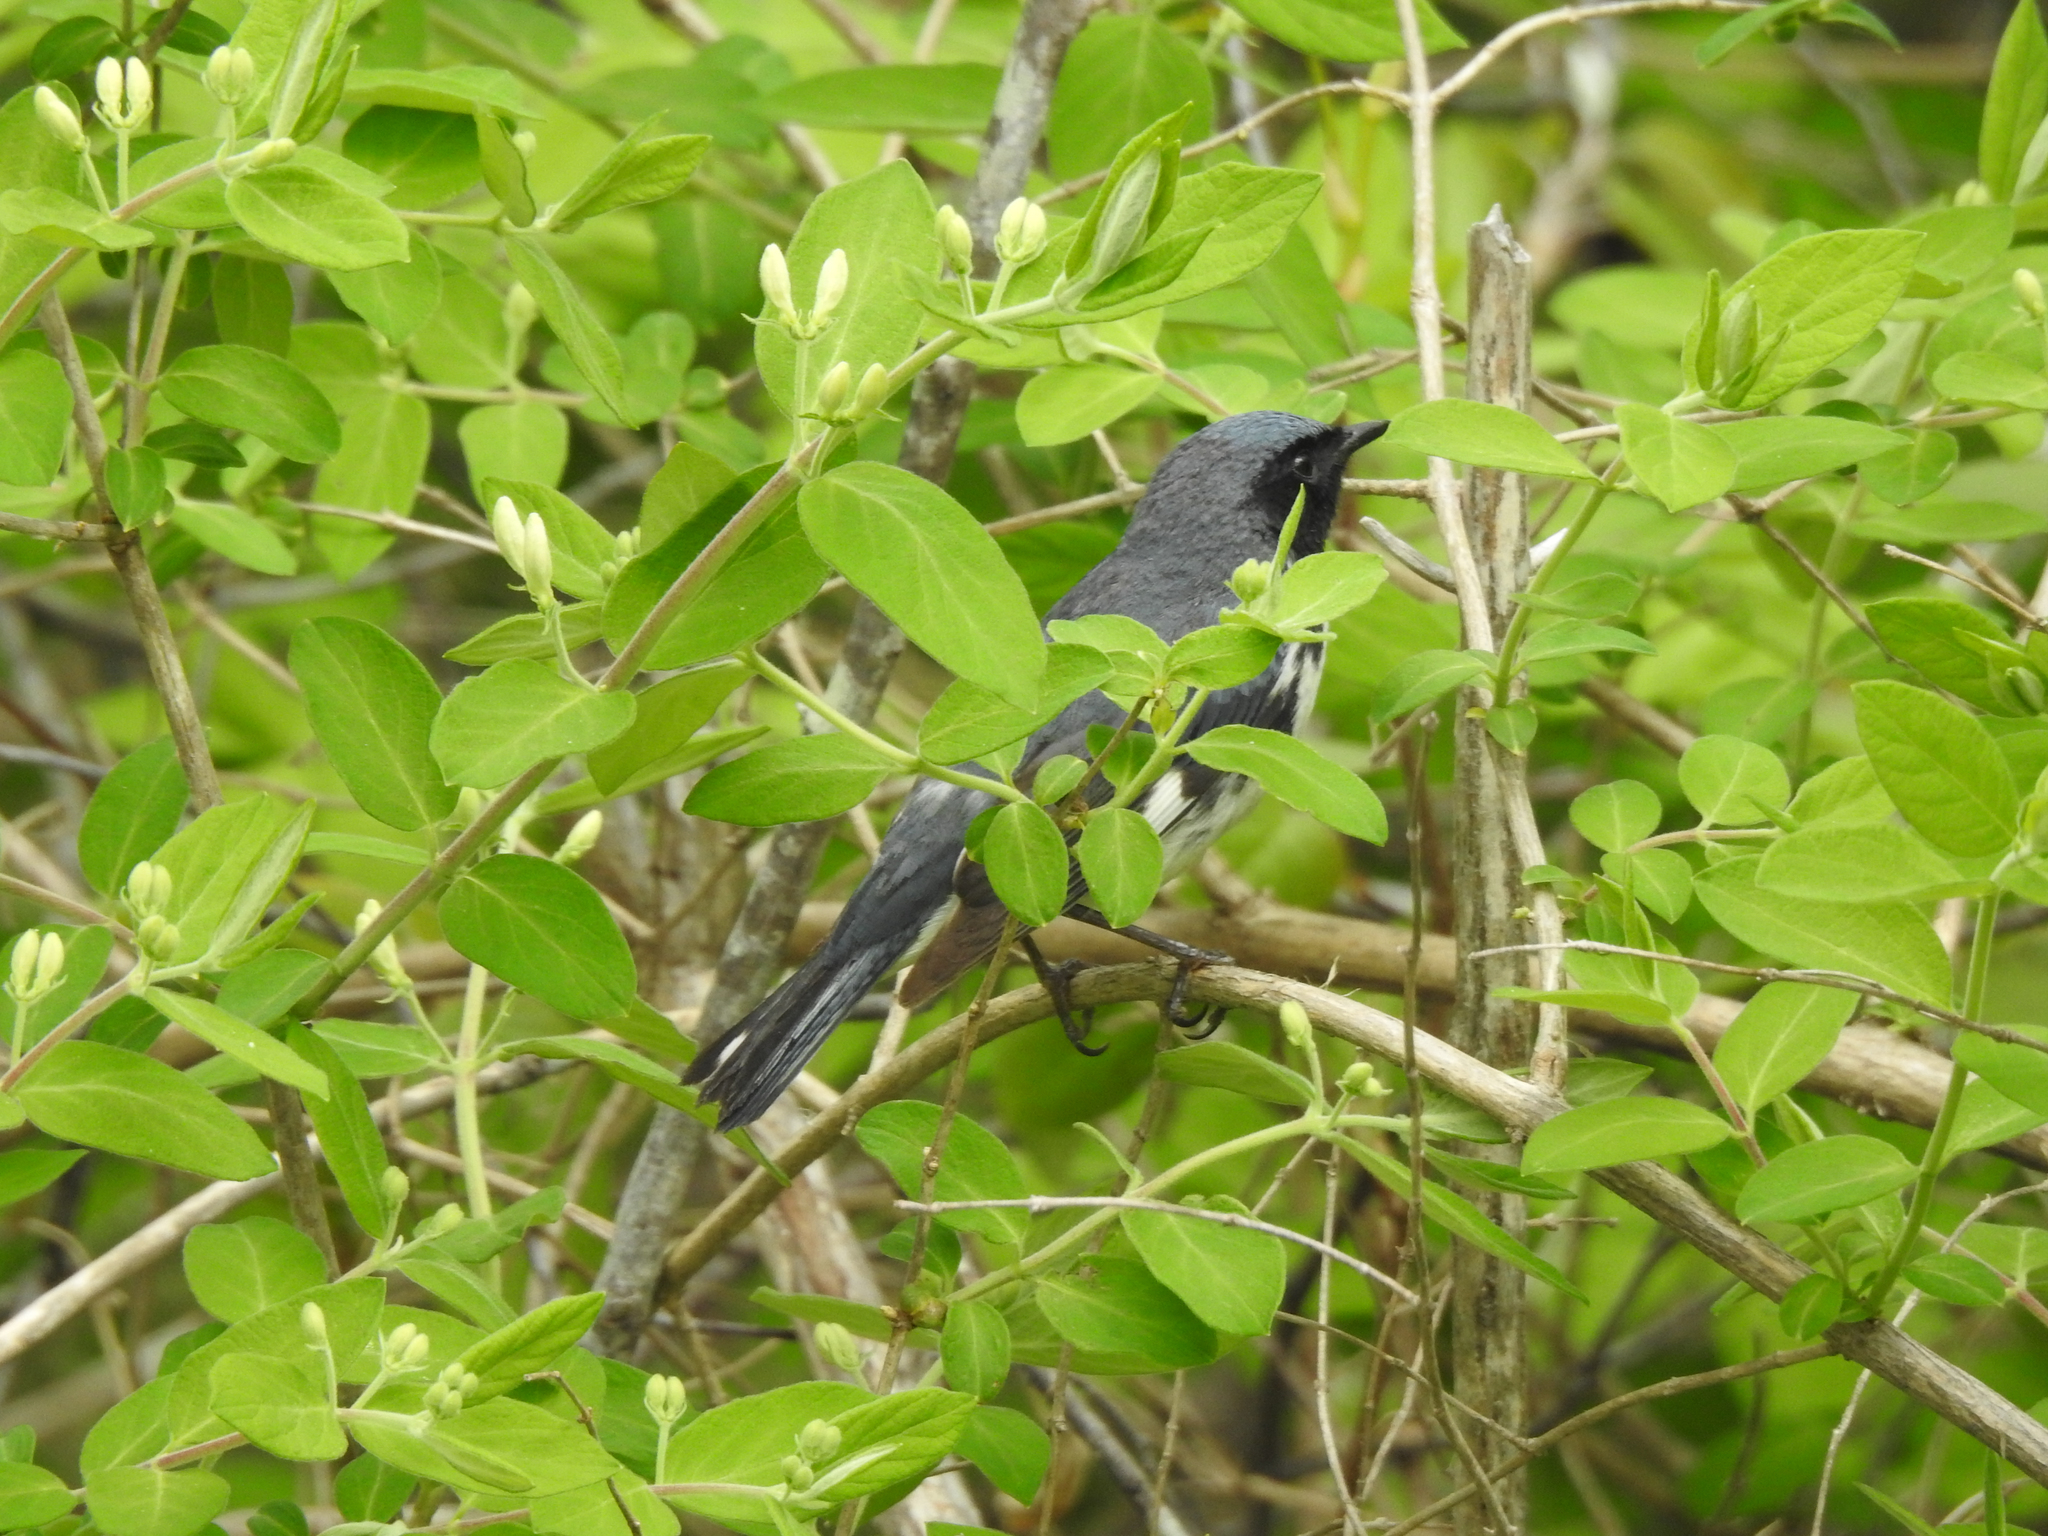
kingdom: Animalia
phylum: Chordata
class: Aves
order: Passeriformes
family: Parulidae
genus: Setophaga
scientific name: Setophaga caerulescens
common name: Black-throated blue warbler
